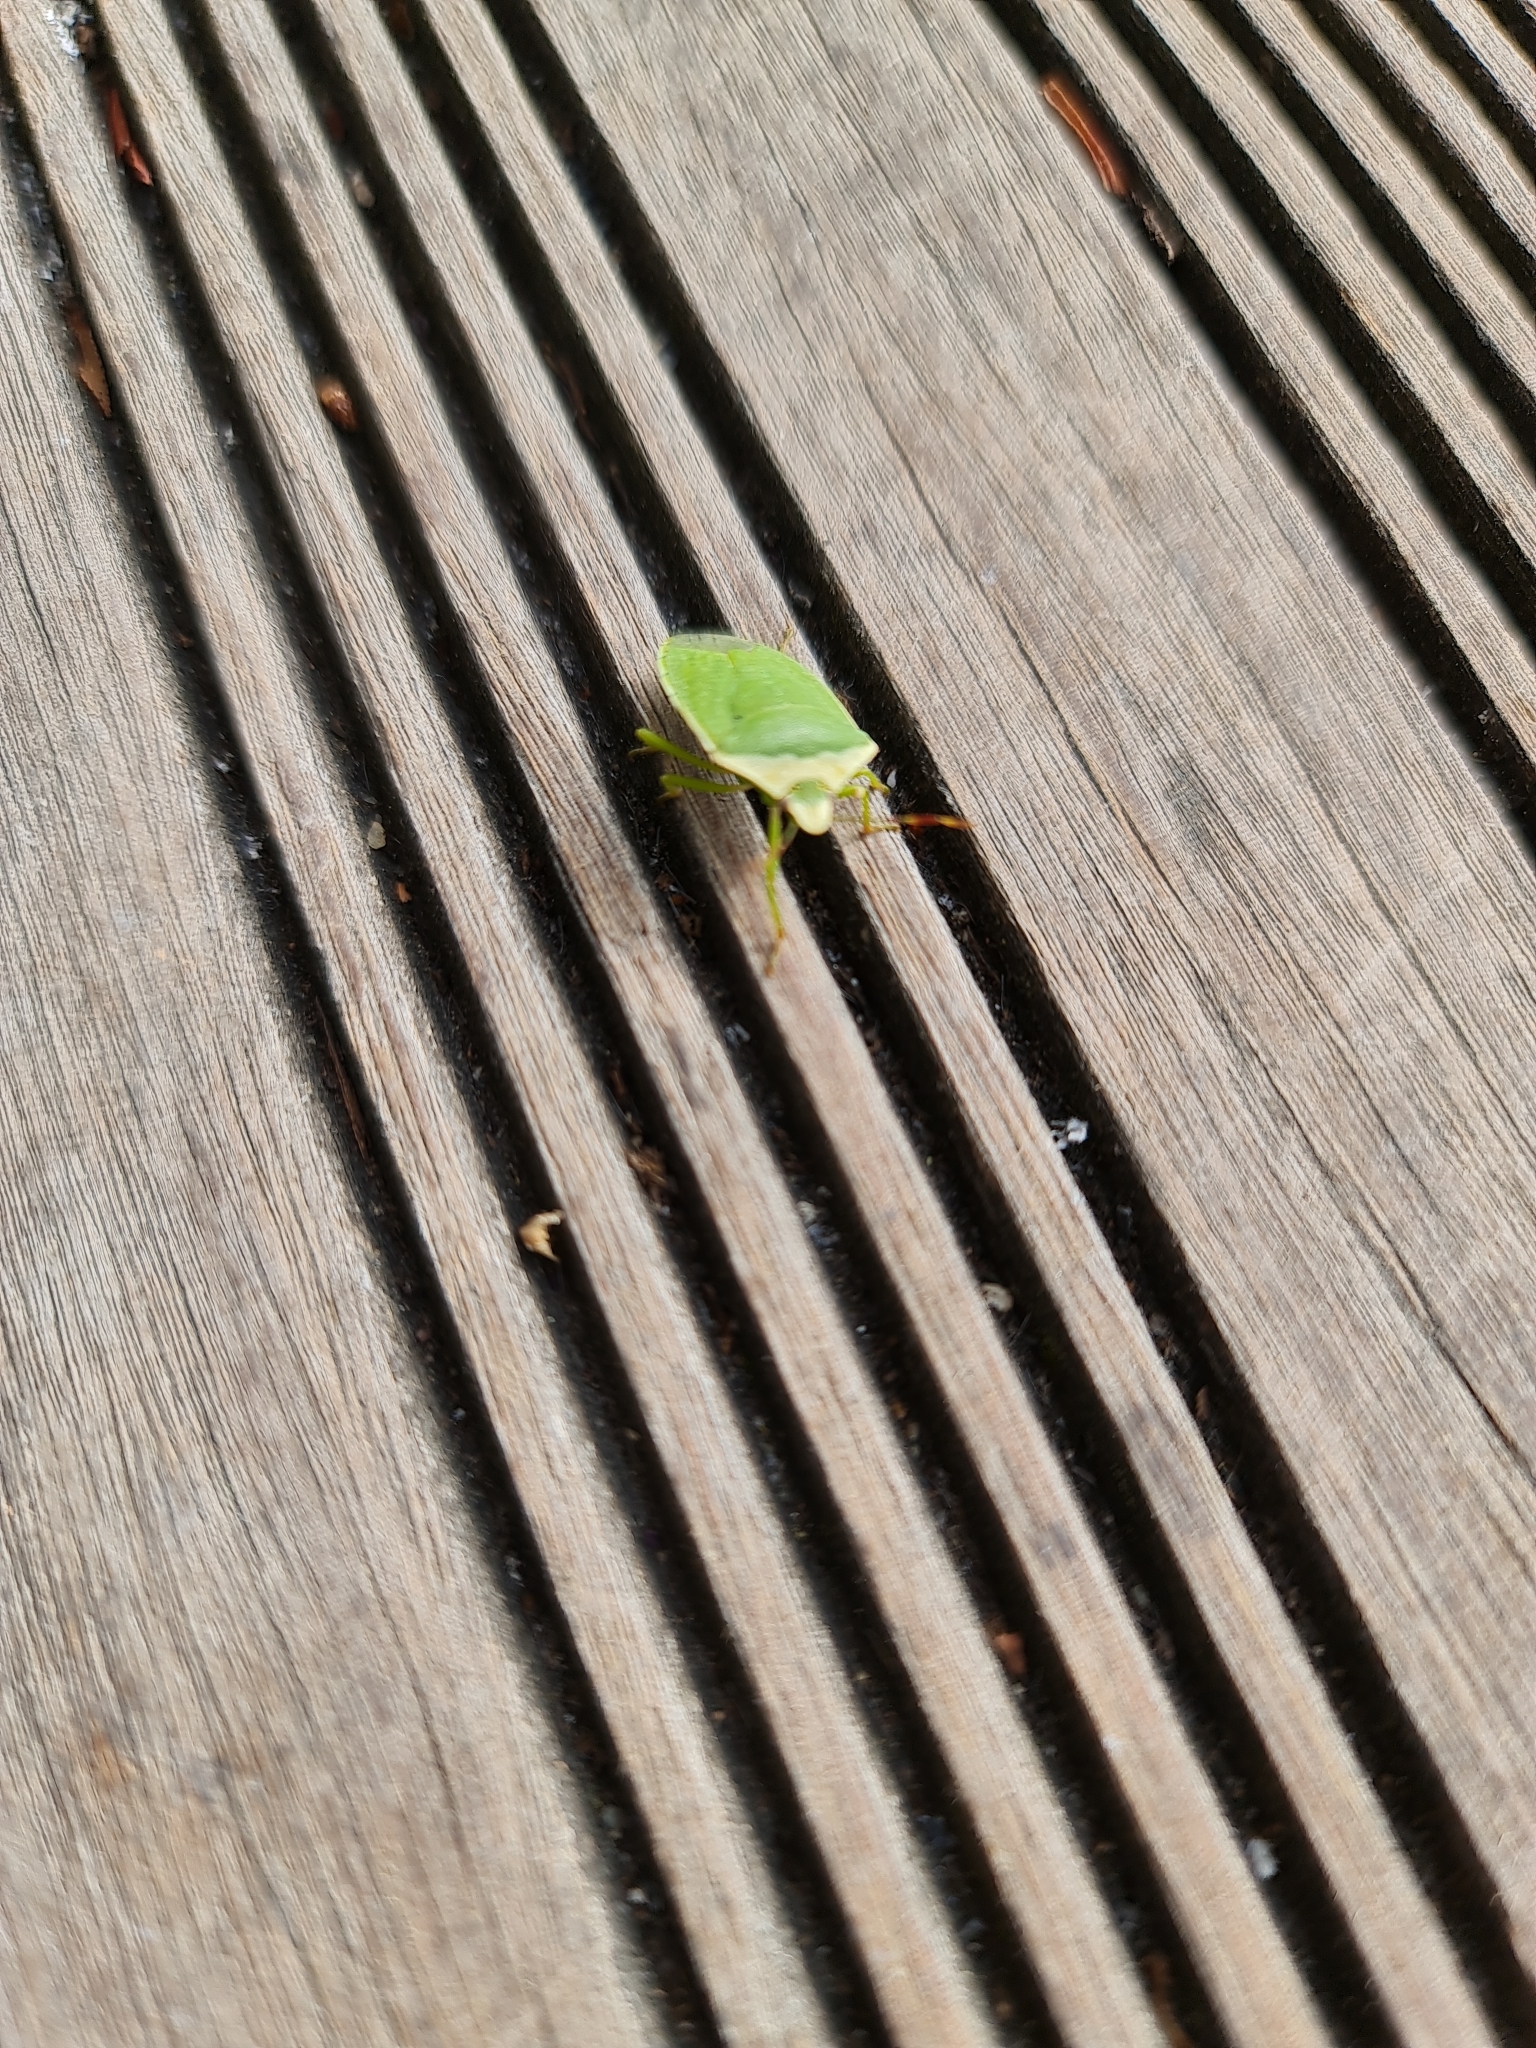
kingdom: Animalia
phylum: Arthropoda
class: Insecta
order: Hemiptera
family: Pentatomidae
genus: Nezara
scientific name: Nezara viridula
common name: Southern green stink bug
